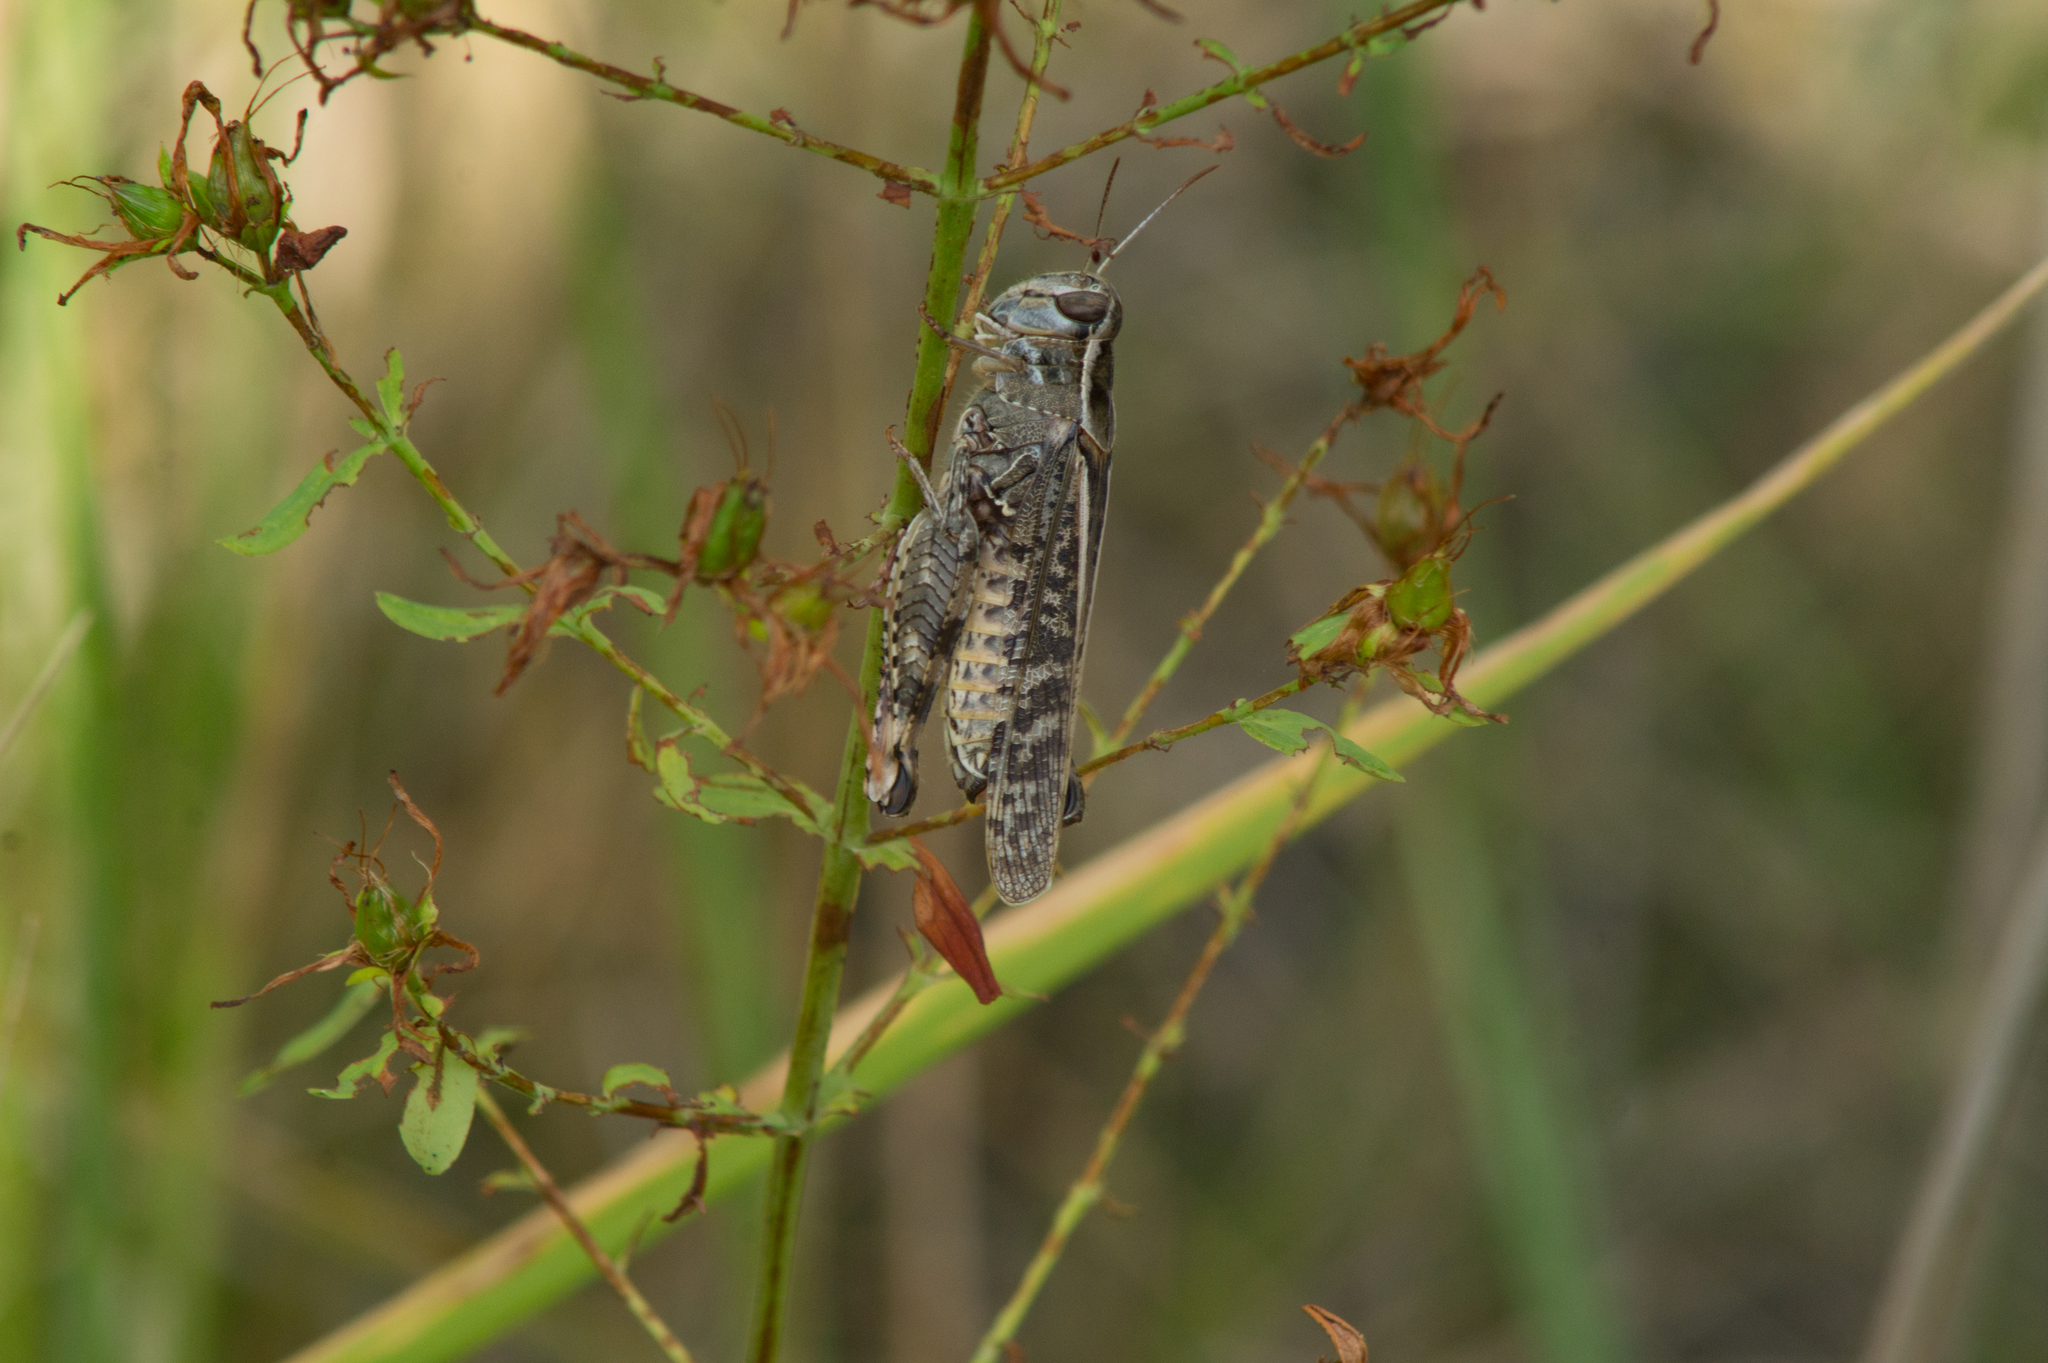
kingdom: Animalia
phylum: Arthropoda
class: Insecta
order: Orthoptera
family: Acrididae
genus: Calliptamus
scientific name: Calliptamus italicus
